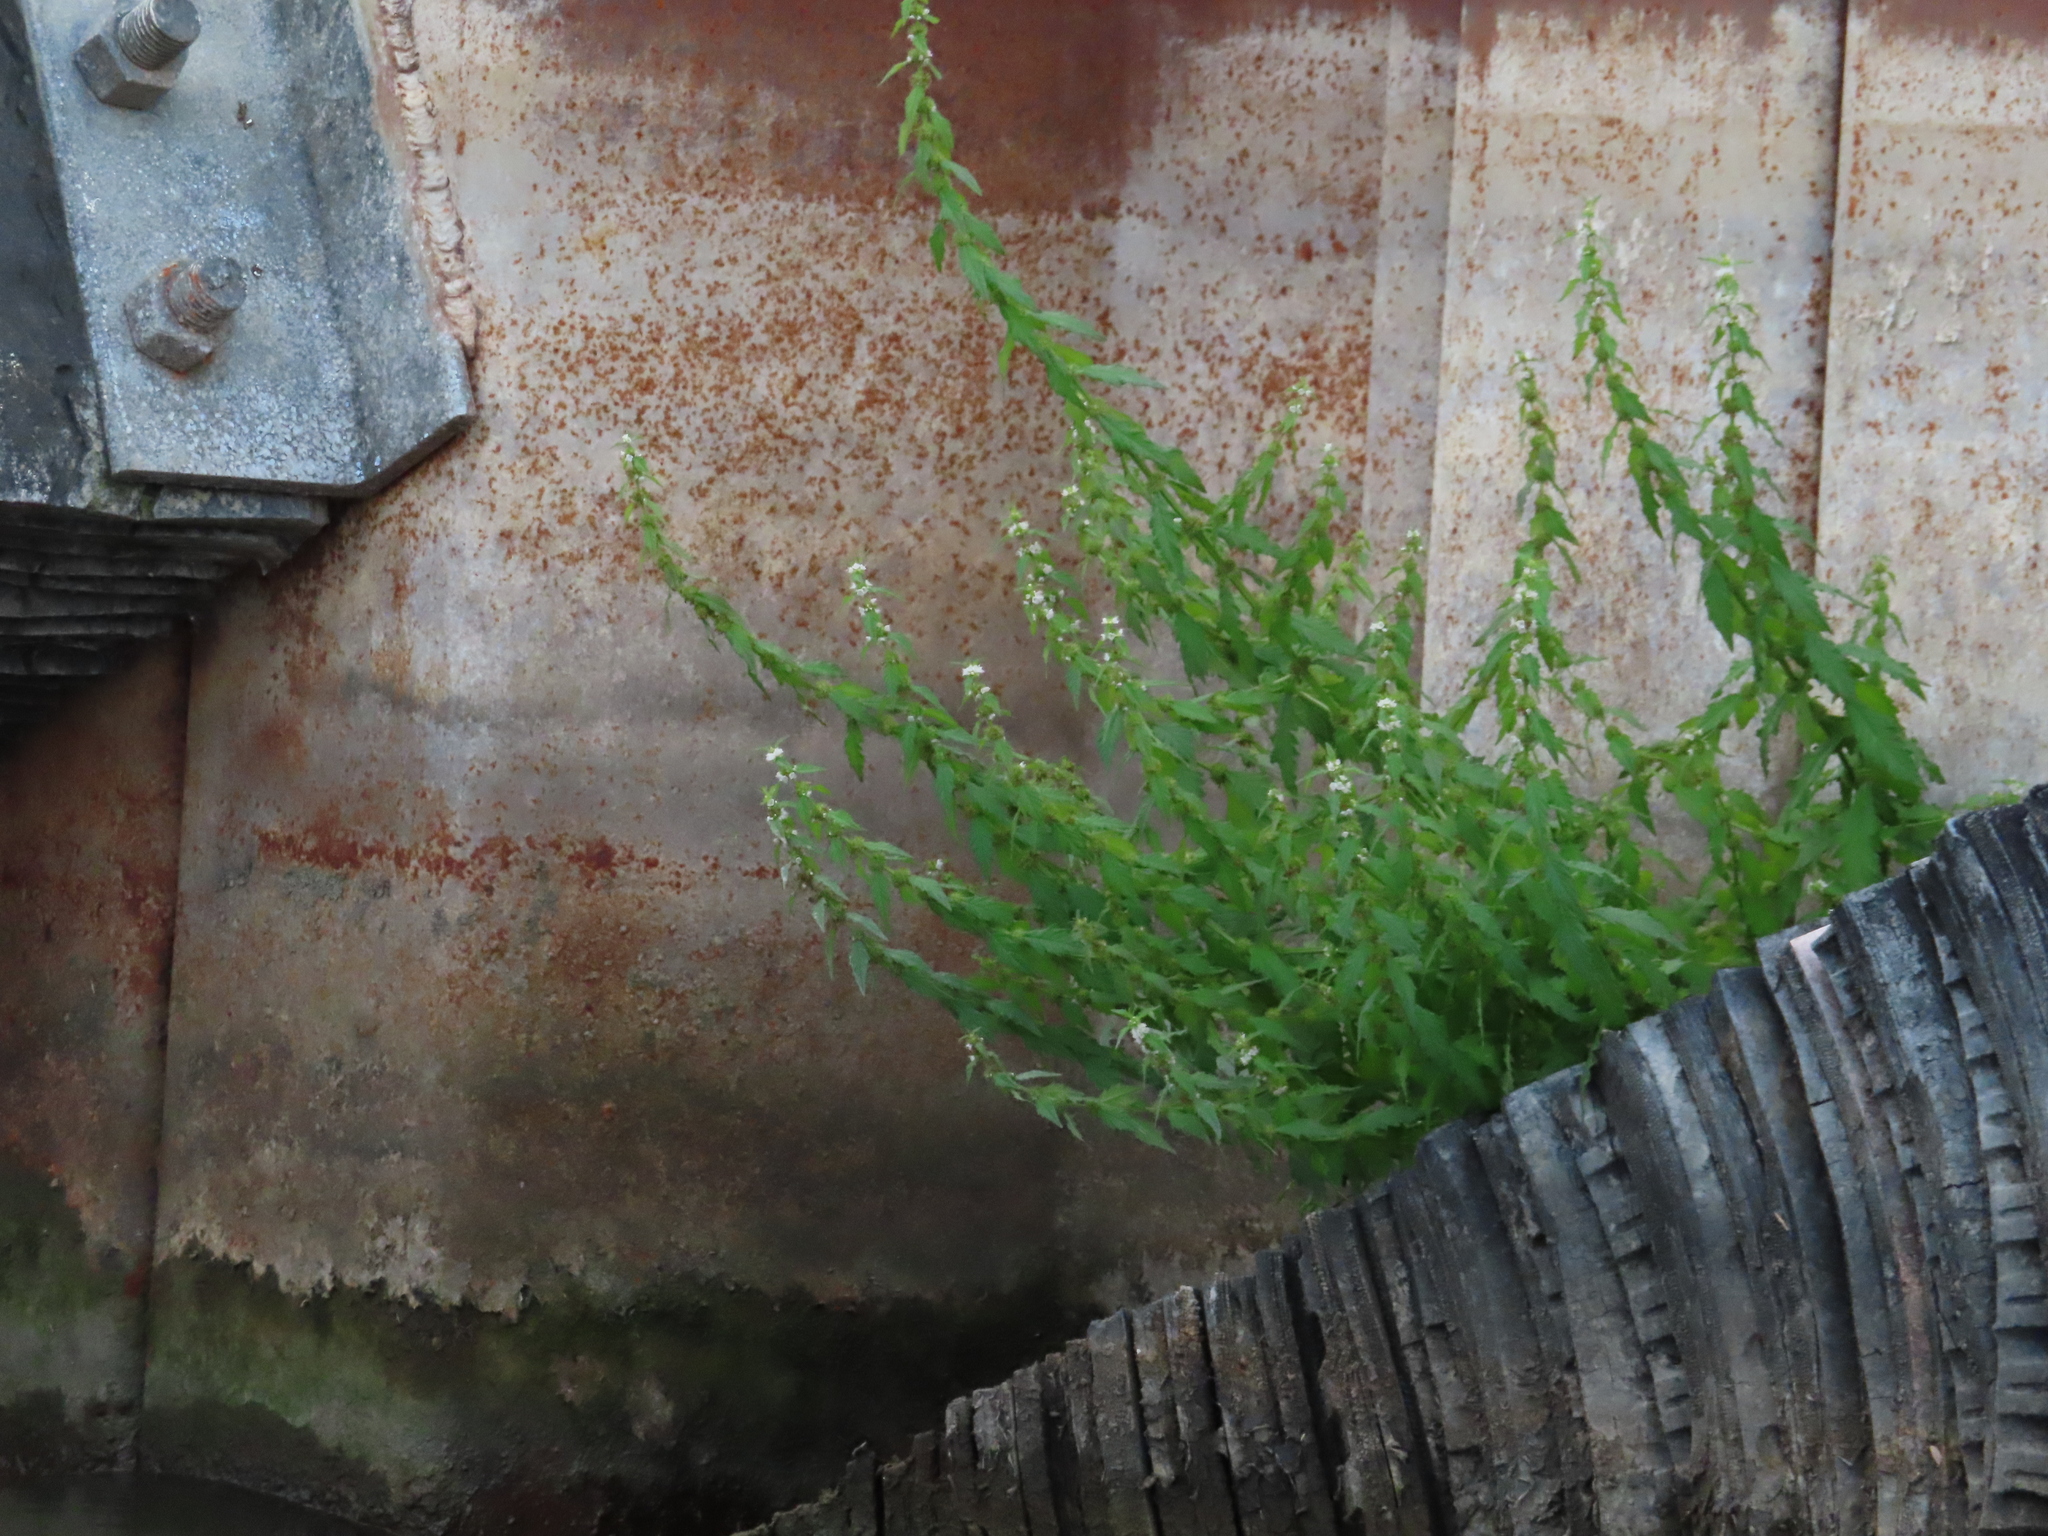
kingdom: Plantae
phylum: Tracheophyta
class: Magnoliopsida
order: Lamiales
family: Lamiaceae
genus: Lycopus
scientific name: Lycopus europaeus
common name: European bugleweed
